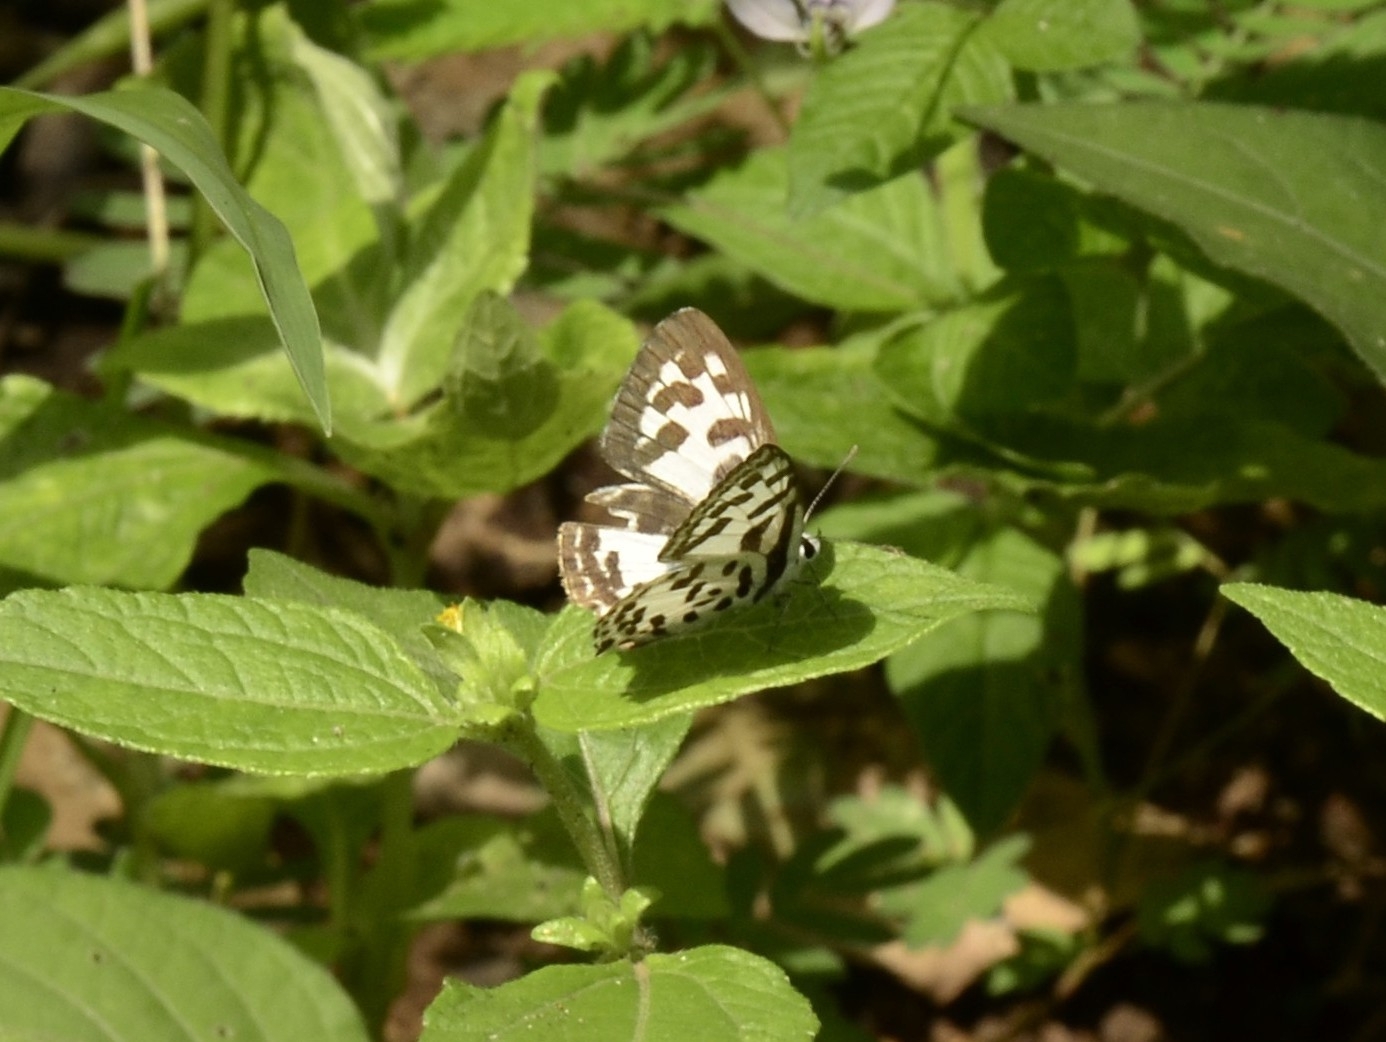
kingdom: Animalia
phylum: Arthropoda
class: Insecta
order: Lepidoptera
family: Lycaenidae
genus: Castalius
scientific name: Castalius rosimon
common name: Common pierrot
